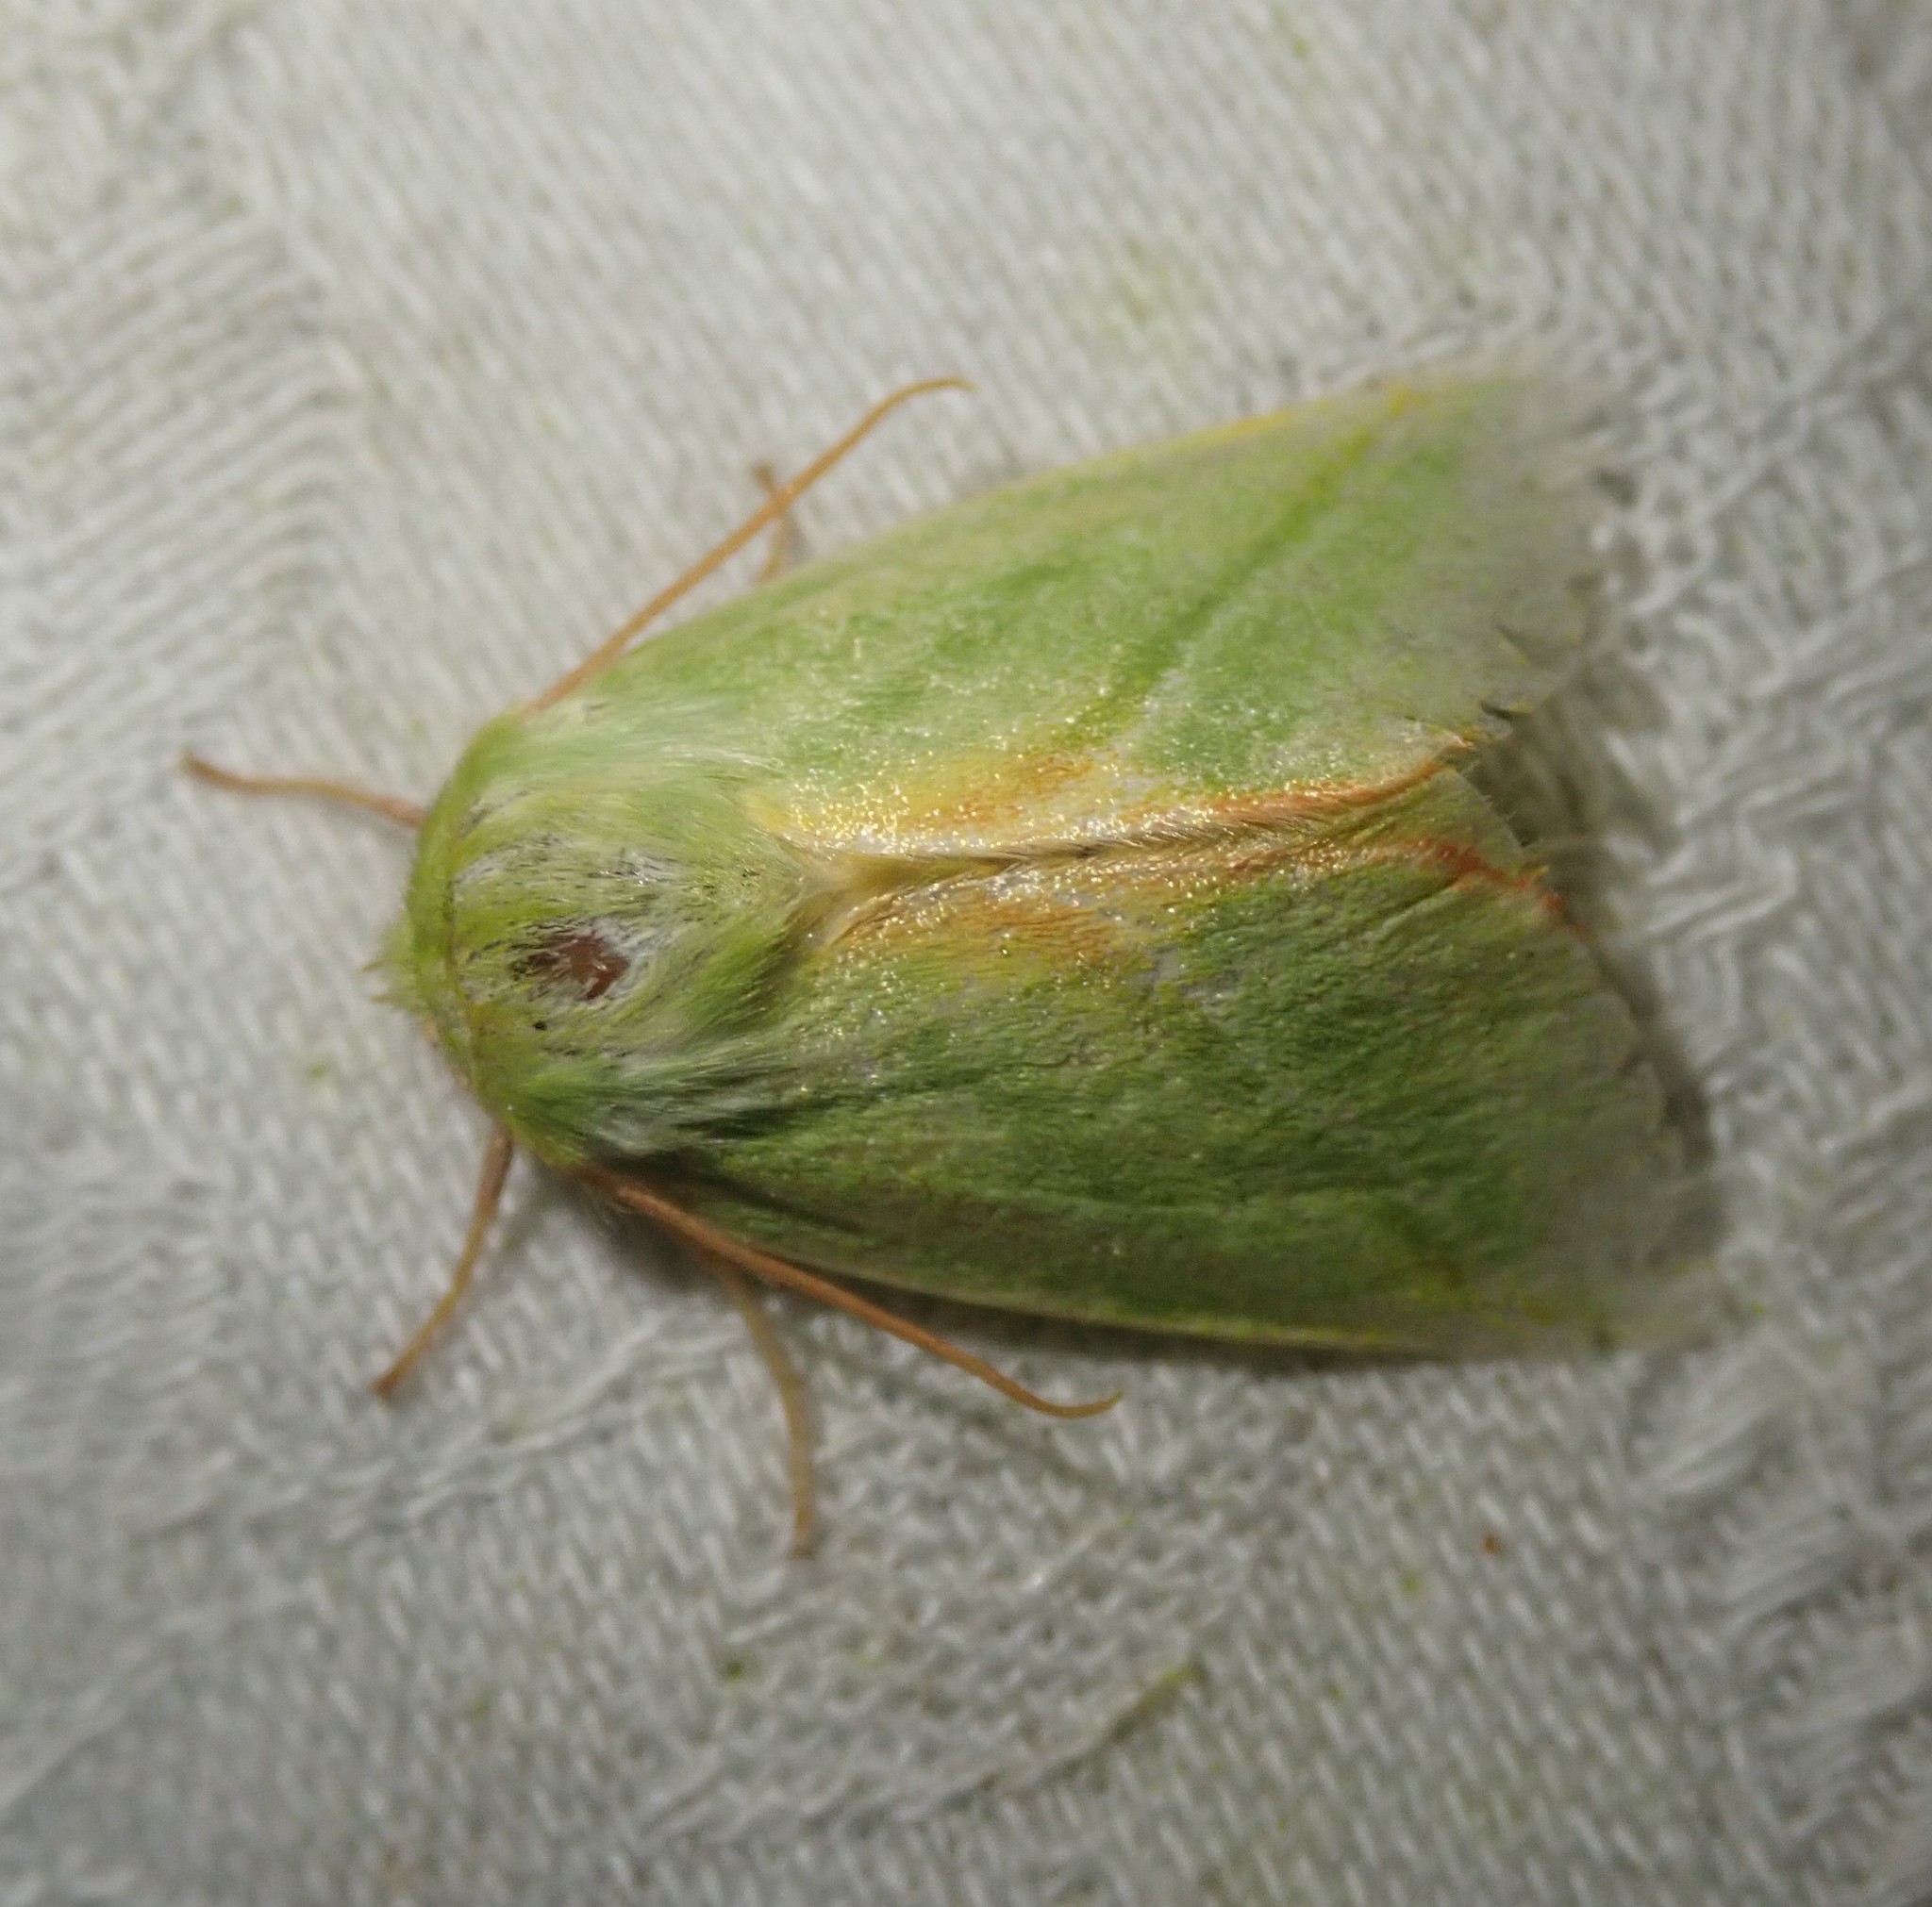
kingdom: Animalia
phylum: Arthropoda
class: Insecta
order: Lepidoptera
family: Nolidae
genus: Pseudoips
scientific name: Pseudoips prasinana
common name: Green silver-lines
